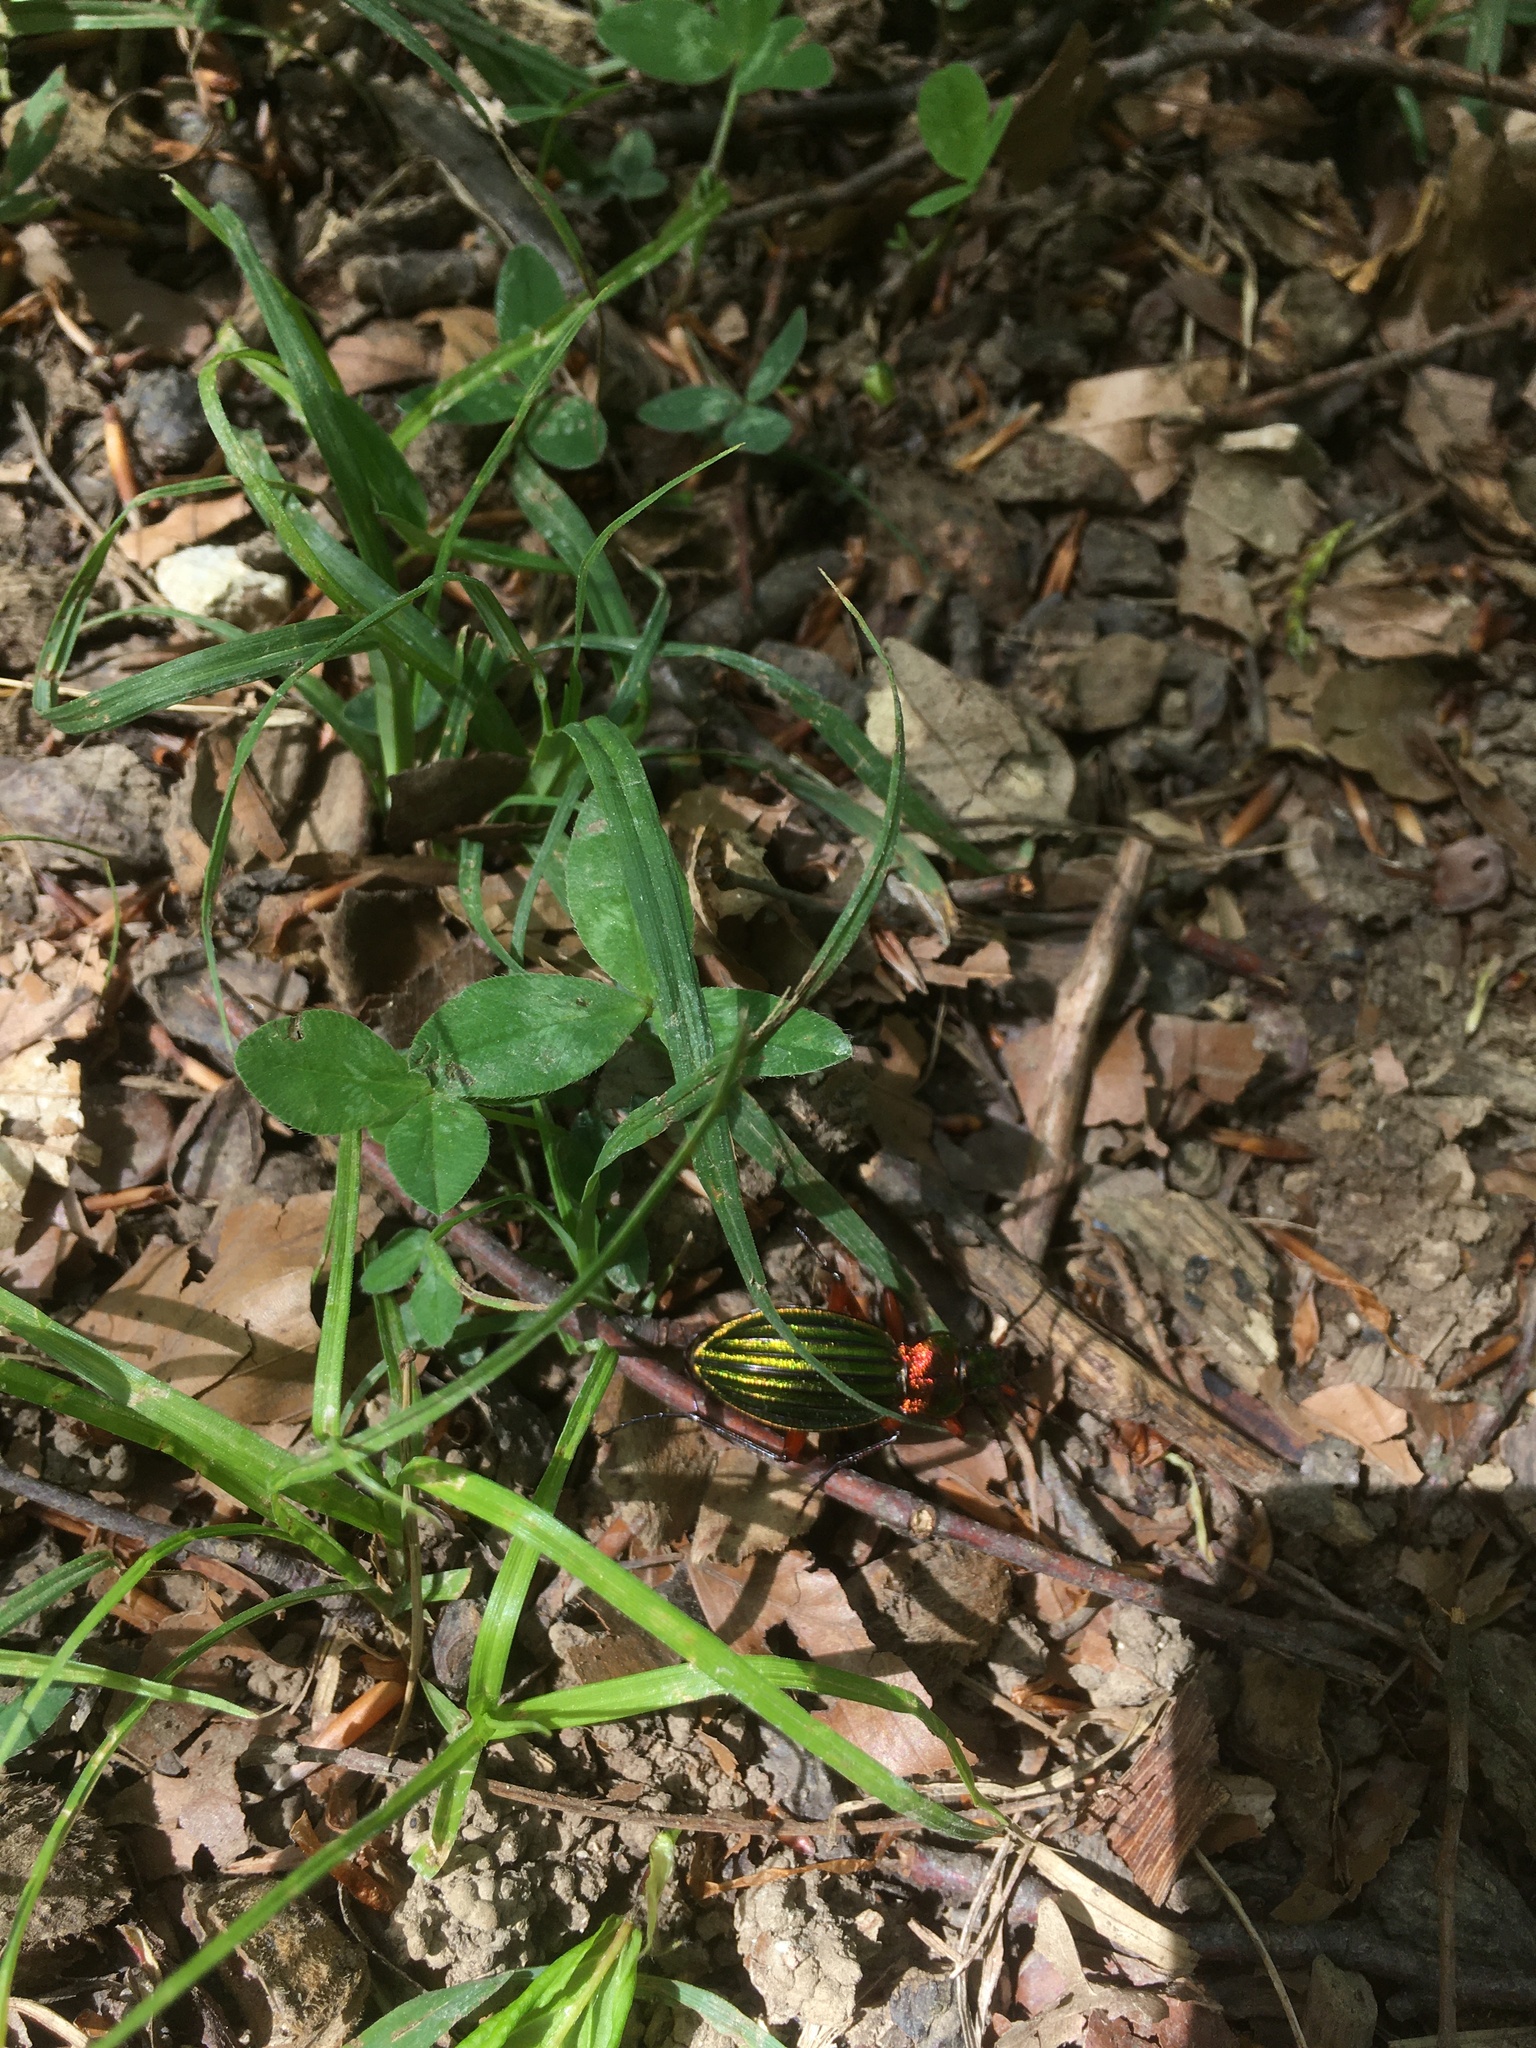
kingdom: Animalia
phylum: Arthropoda
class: Insecta
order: Coleoptera
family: Carabidae
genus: Carabus
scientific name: Carabus auronitens
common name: Carabus auronitens
